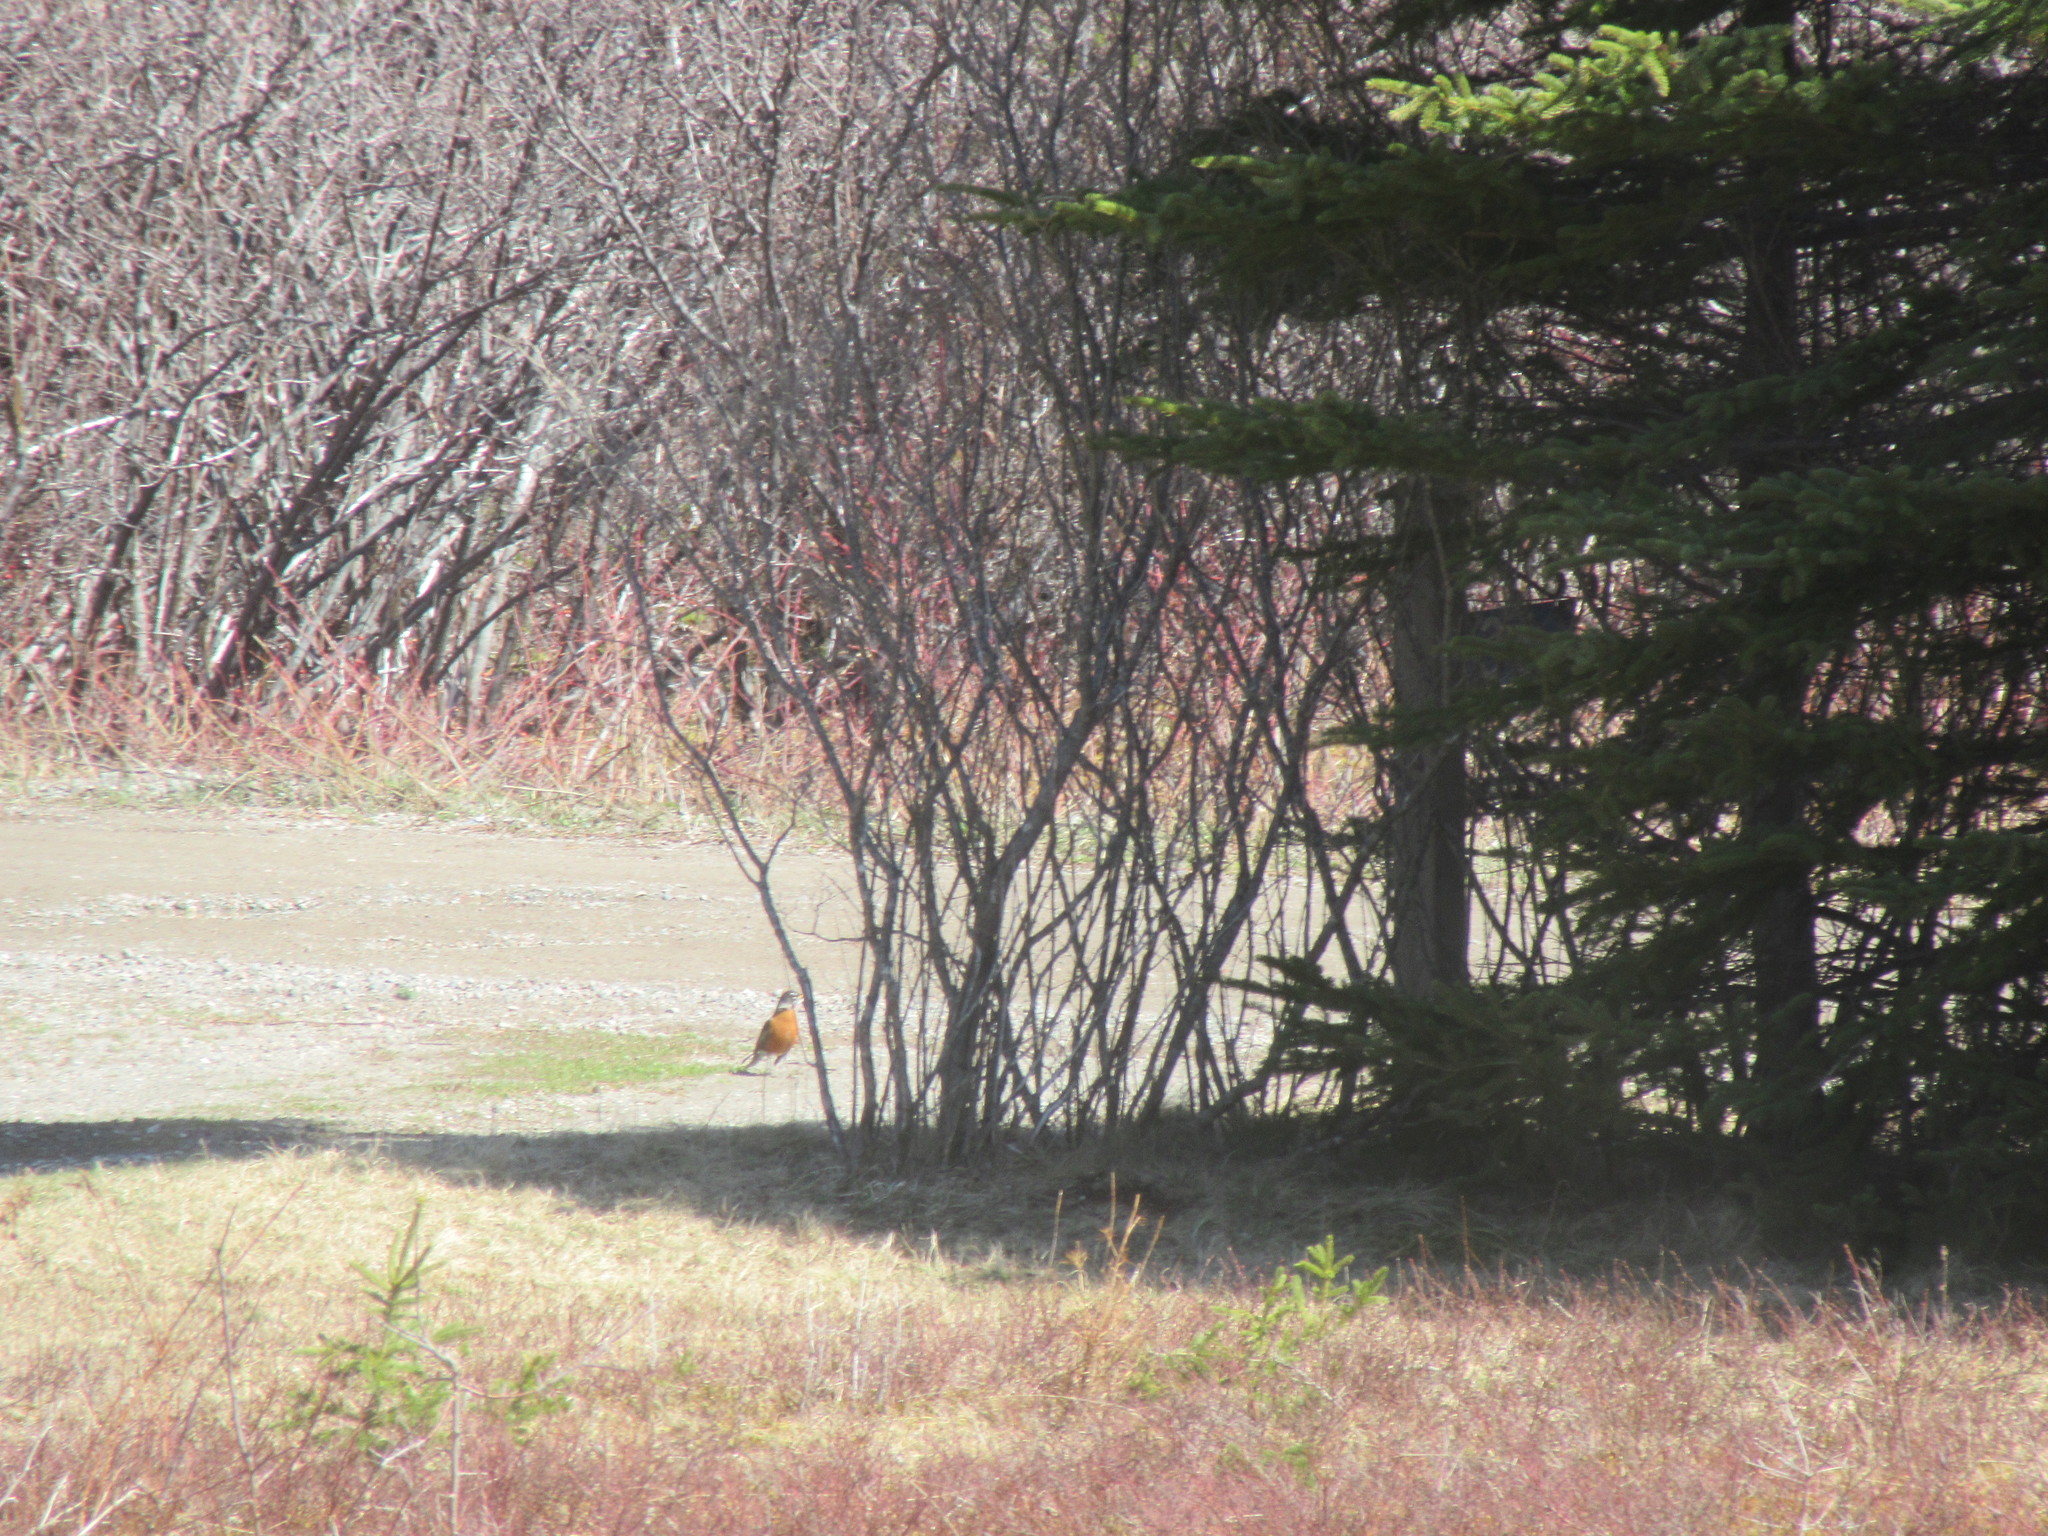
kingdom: Animalia
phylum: Chordata
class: Aves
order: Passeriformes
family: Turdidae
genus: Turdus
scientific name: Turdus migratorius
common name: American robin
